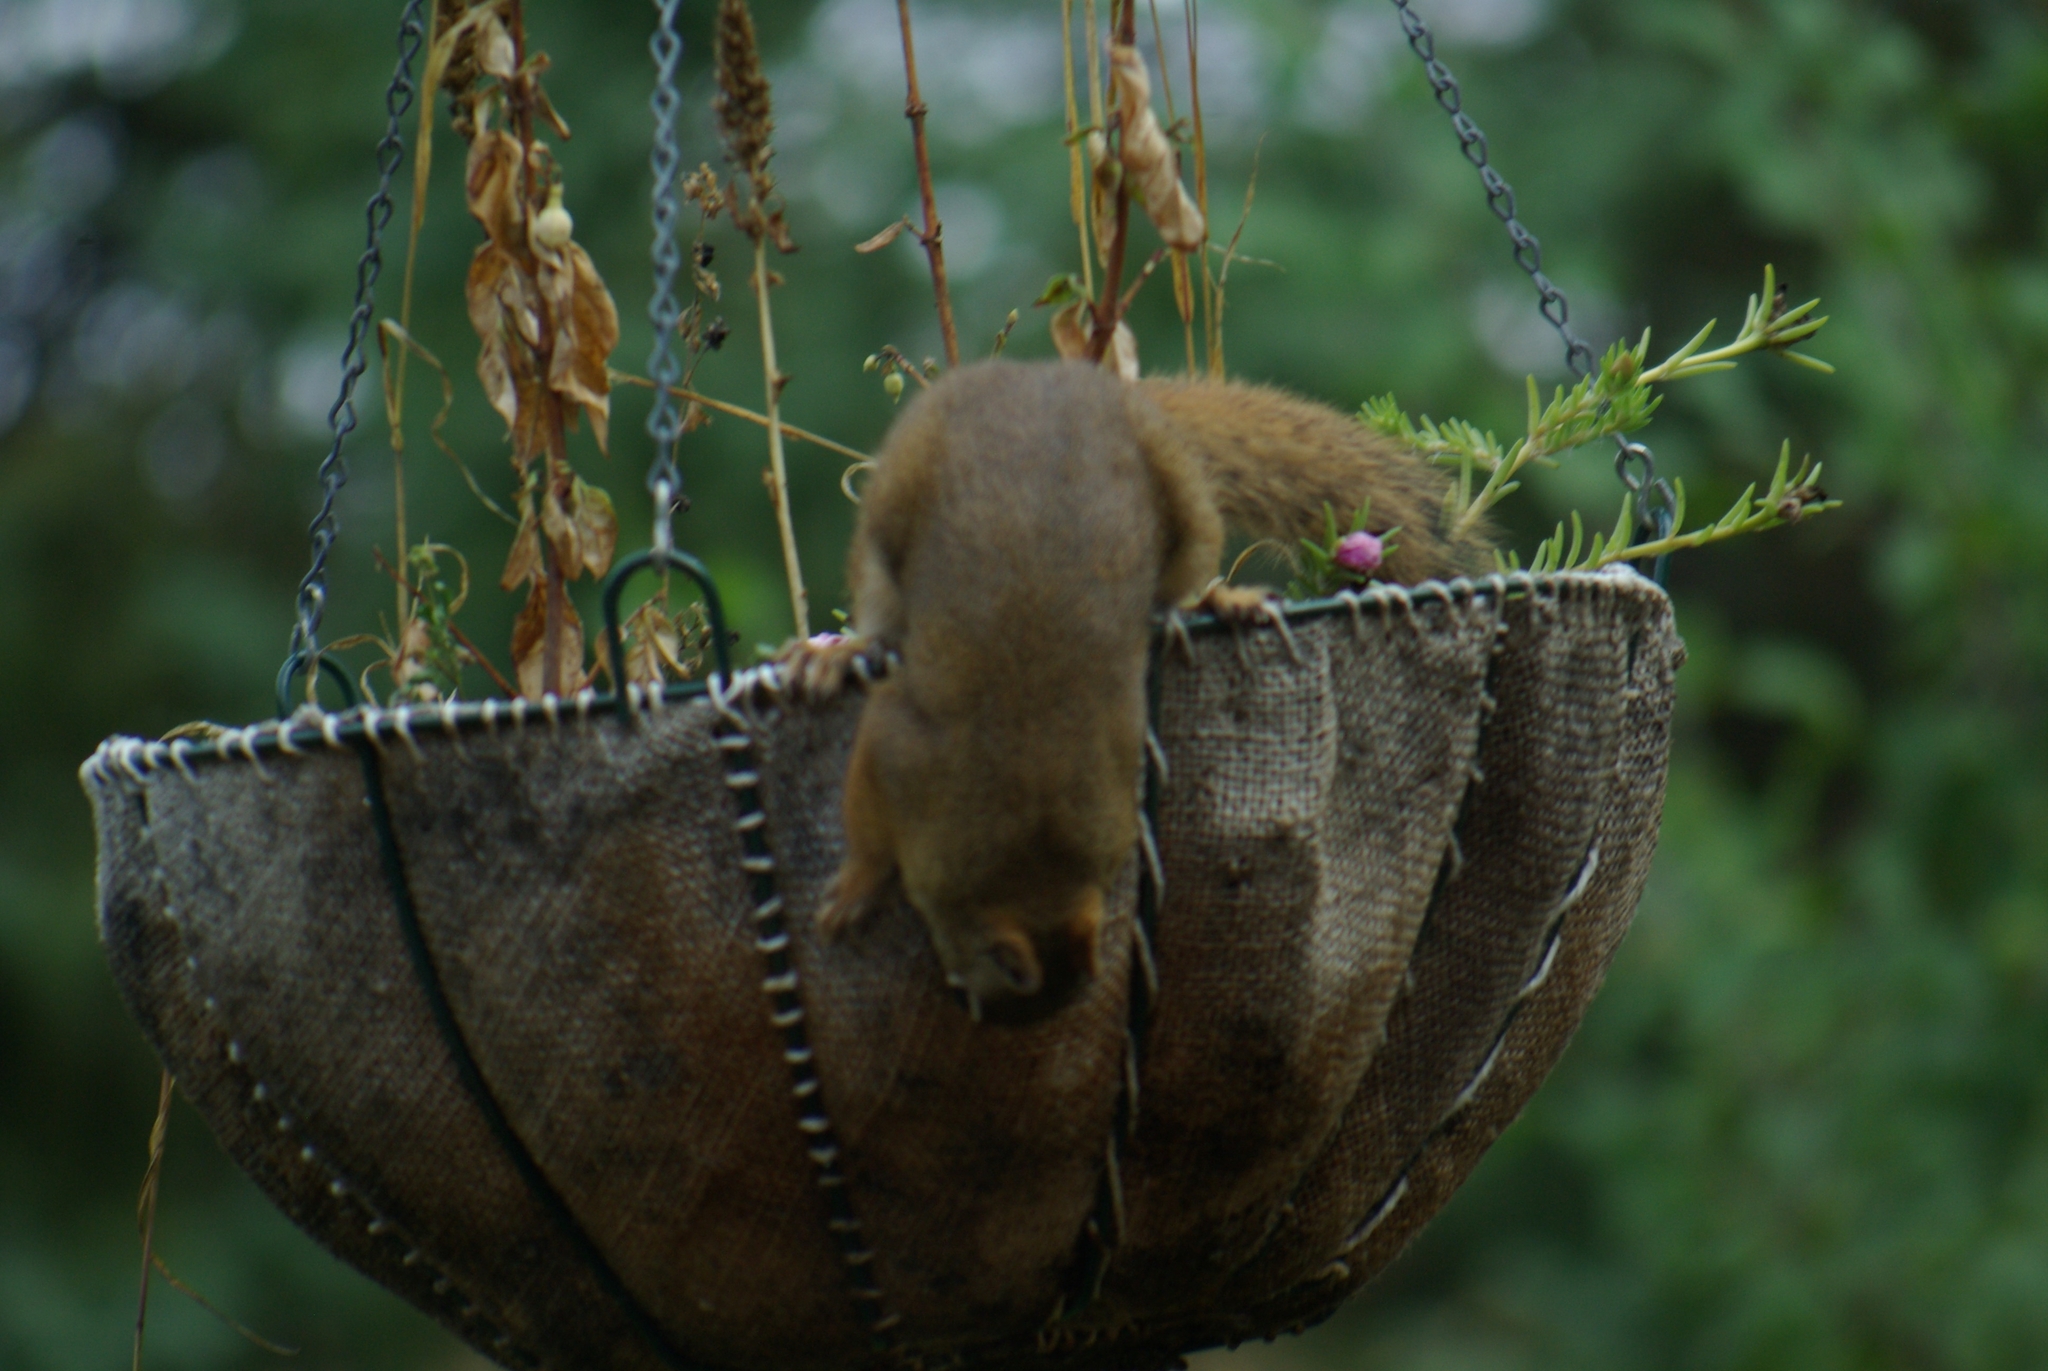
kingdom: Animalia
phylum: Chordata
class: Mammalia
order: Rodentia
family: Sciuridae
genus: Tamiasciurus
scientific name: Tamiasciurus hudsonicus
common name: Red squirrel
